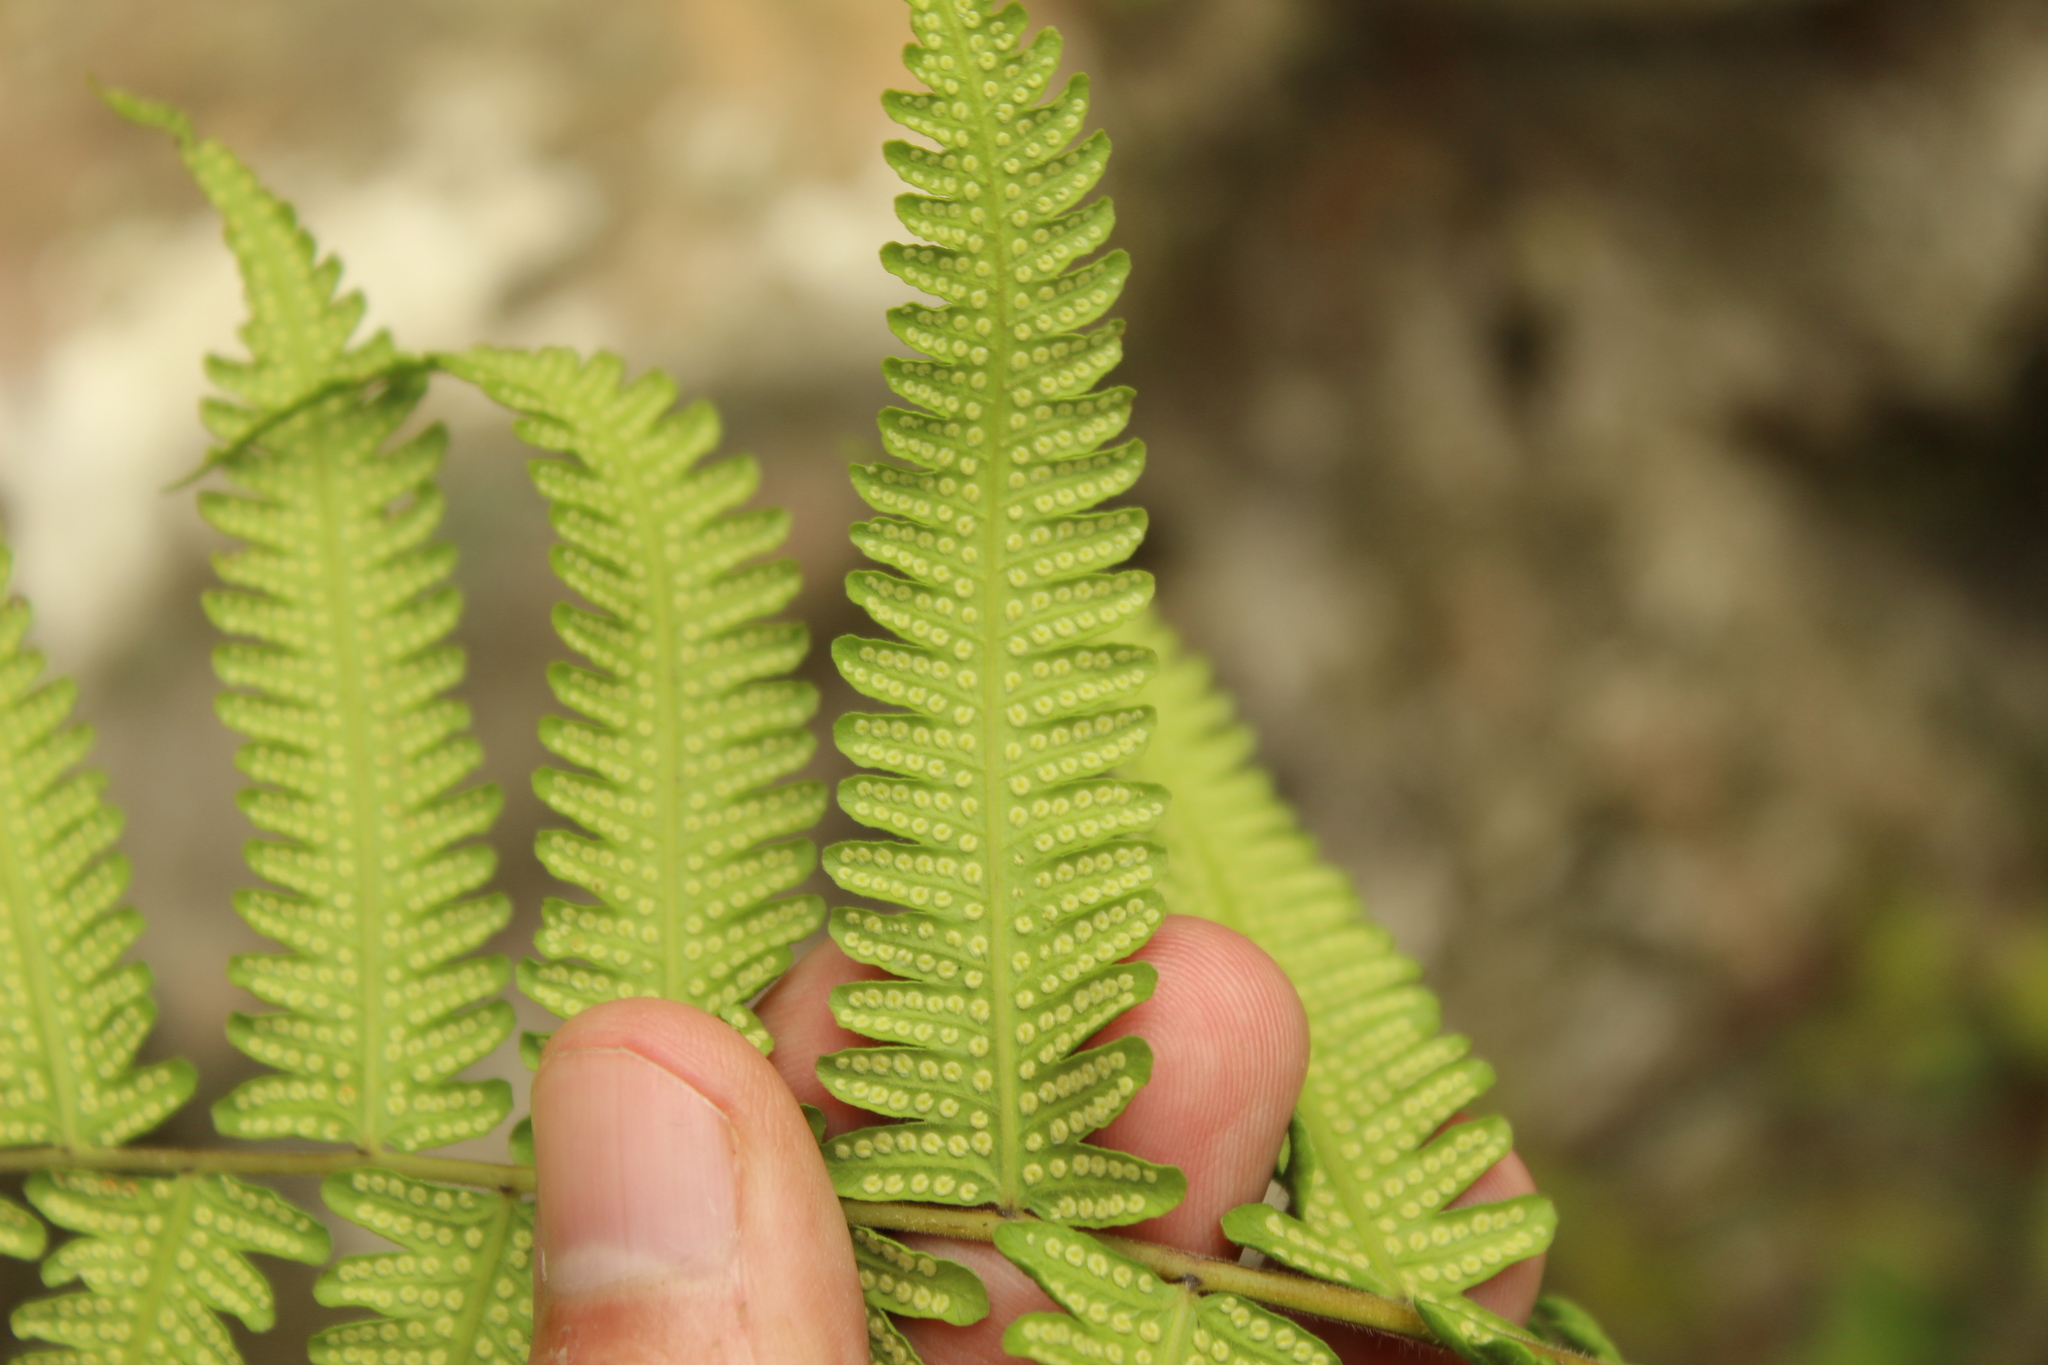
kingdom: Plantae
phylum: Tracheophyta
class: Polypodiopsida
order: Polypodiales
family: Thelypteridaceae
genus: Christella
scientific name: Christella dentata
